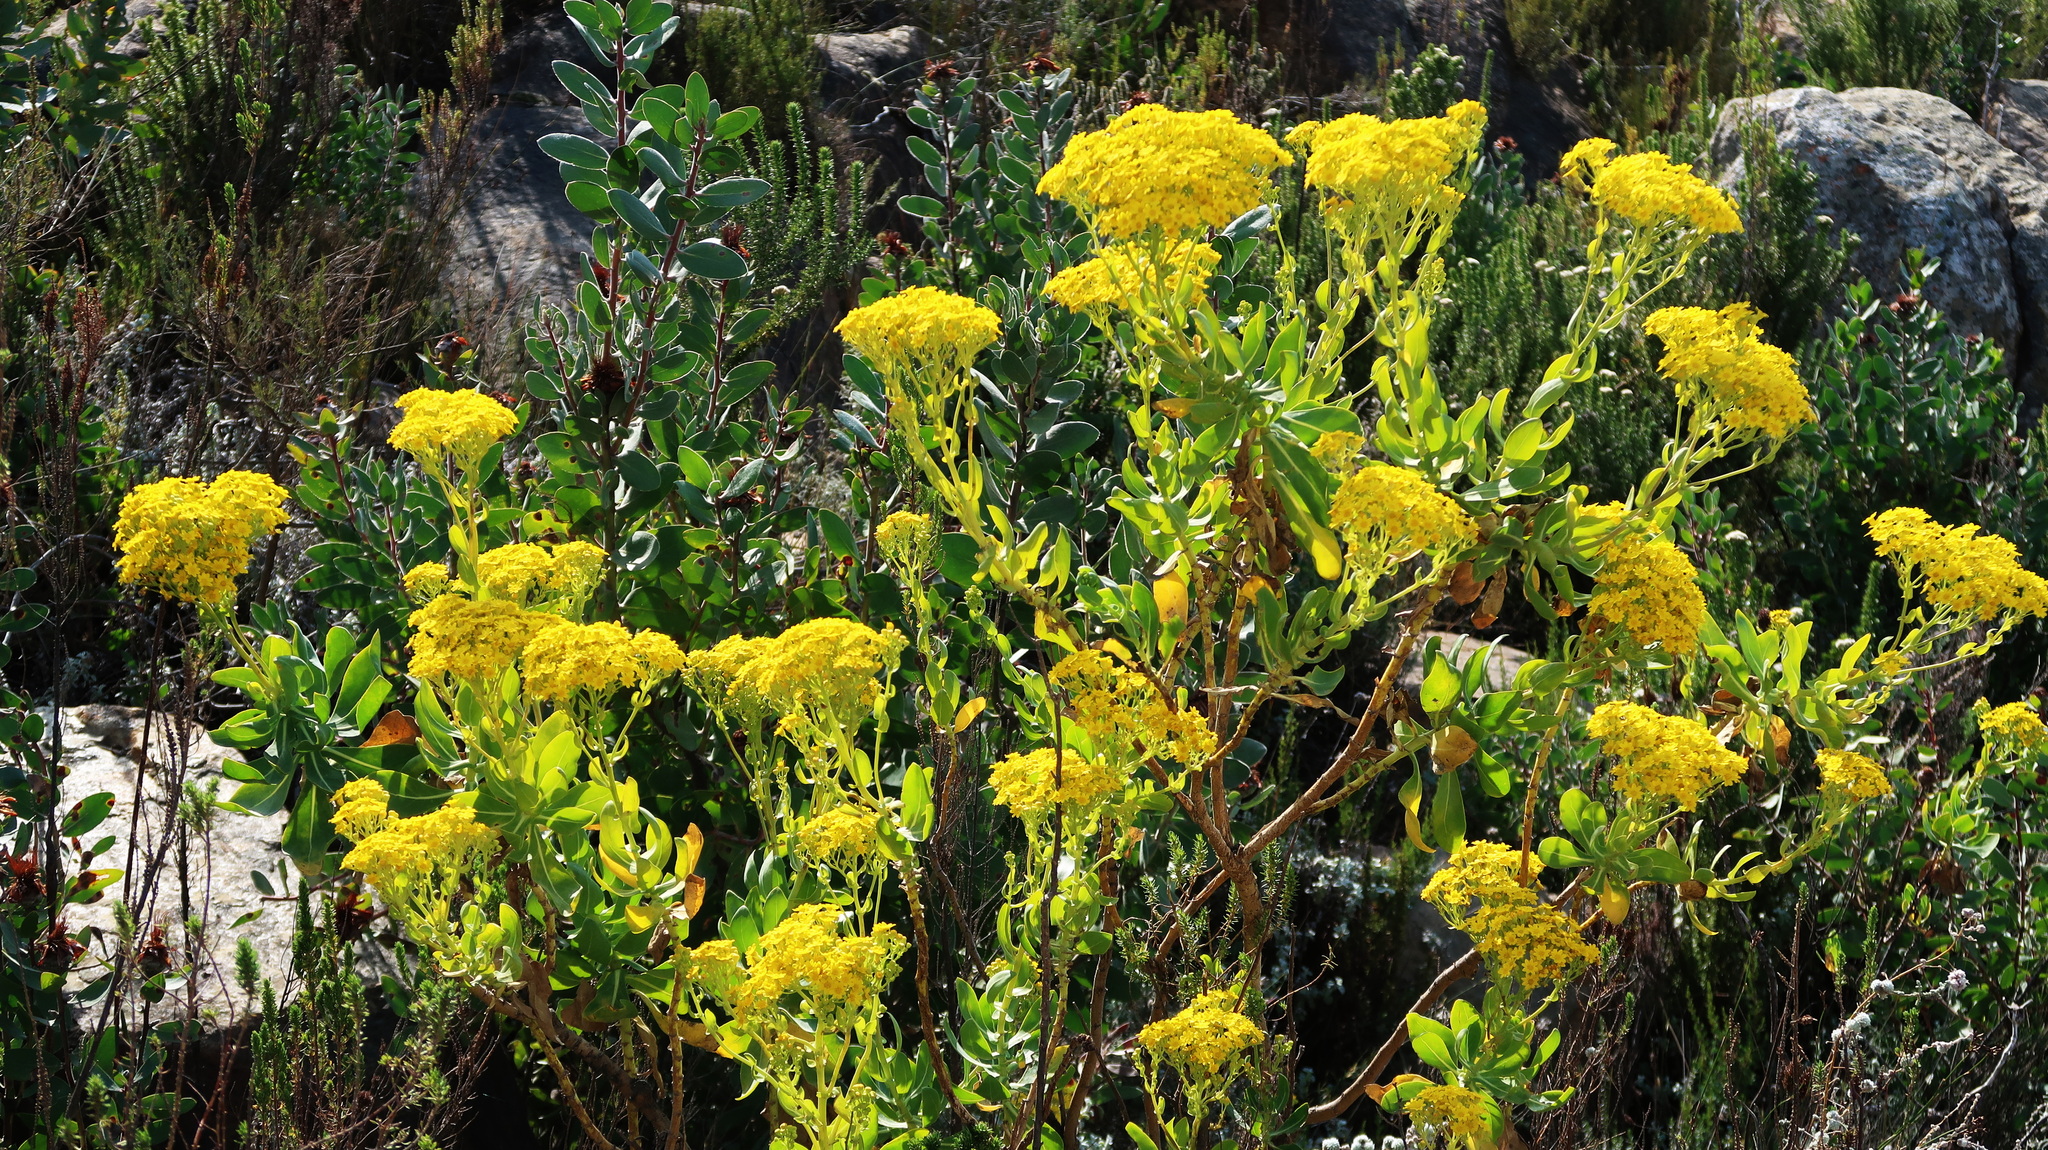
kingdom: Plantae
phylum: Tracheophyta
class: Magnoliopsida
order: Asterales
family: Asteraceae
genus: Othonna
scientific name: Othonna parviflora
